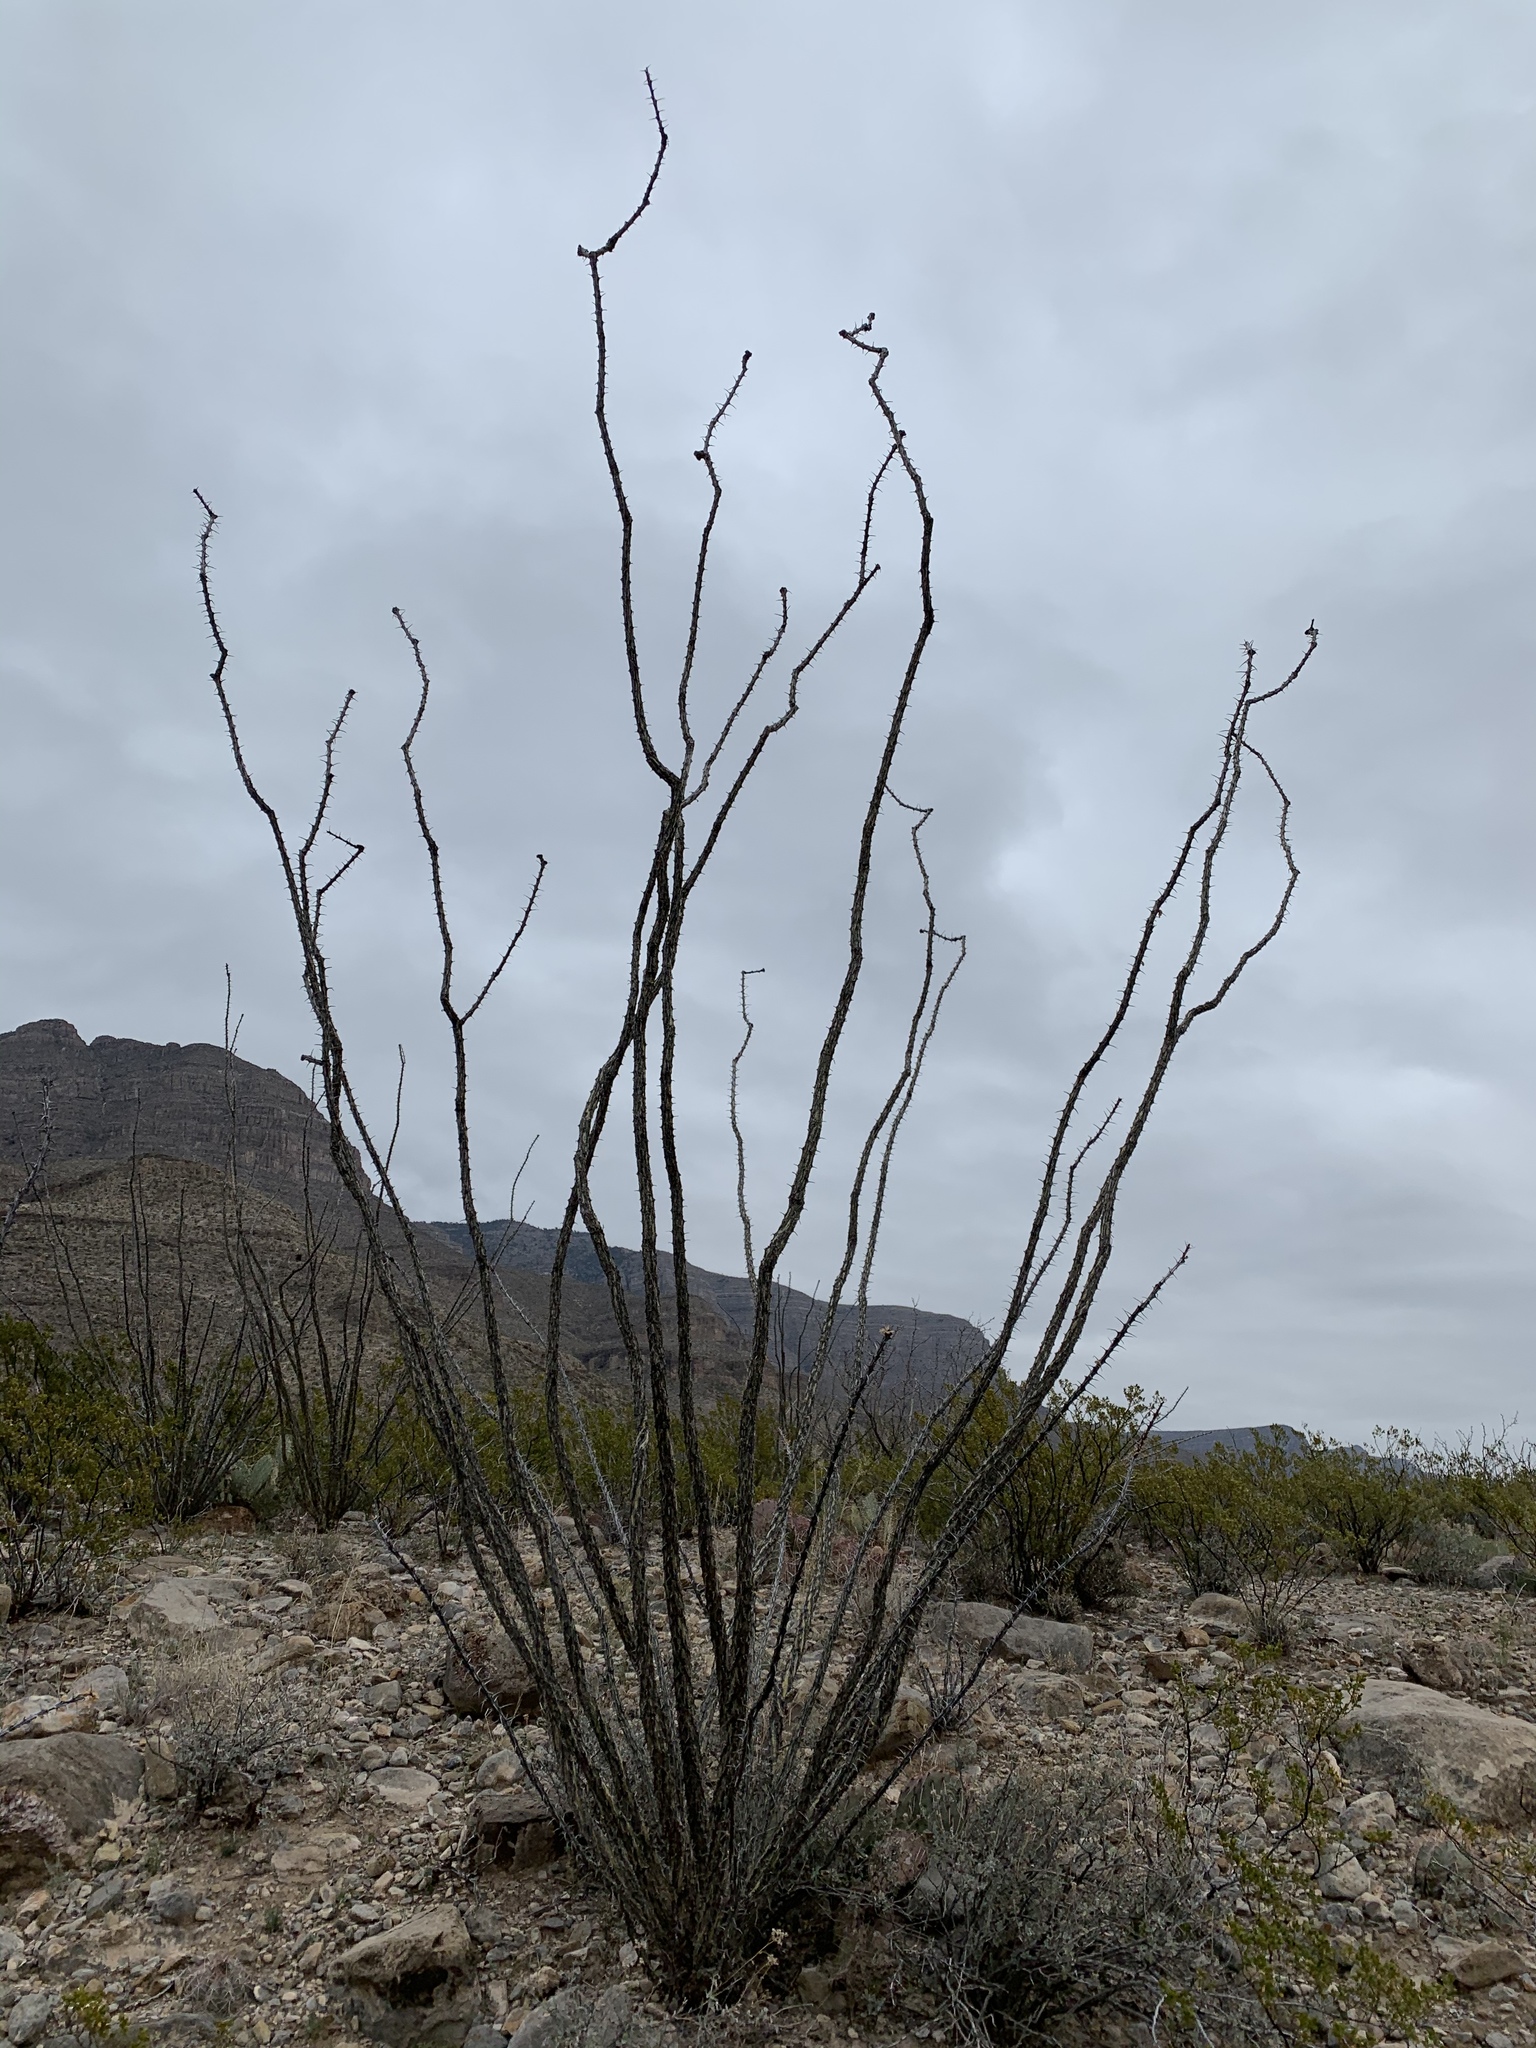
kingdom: Plantae
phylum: Tracheophyta
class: Magnoliopsida
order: Ericales
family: Fouquieriaceae
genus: Fouquieria
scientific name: Fouquieria splendens
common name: Vine-cactus
